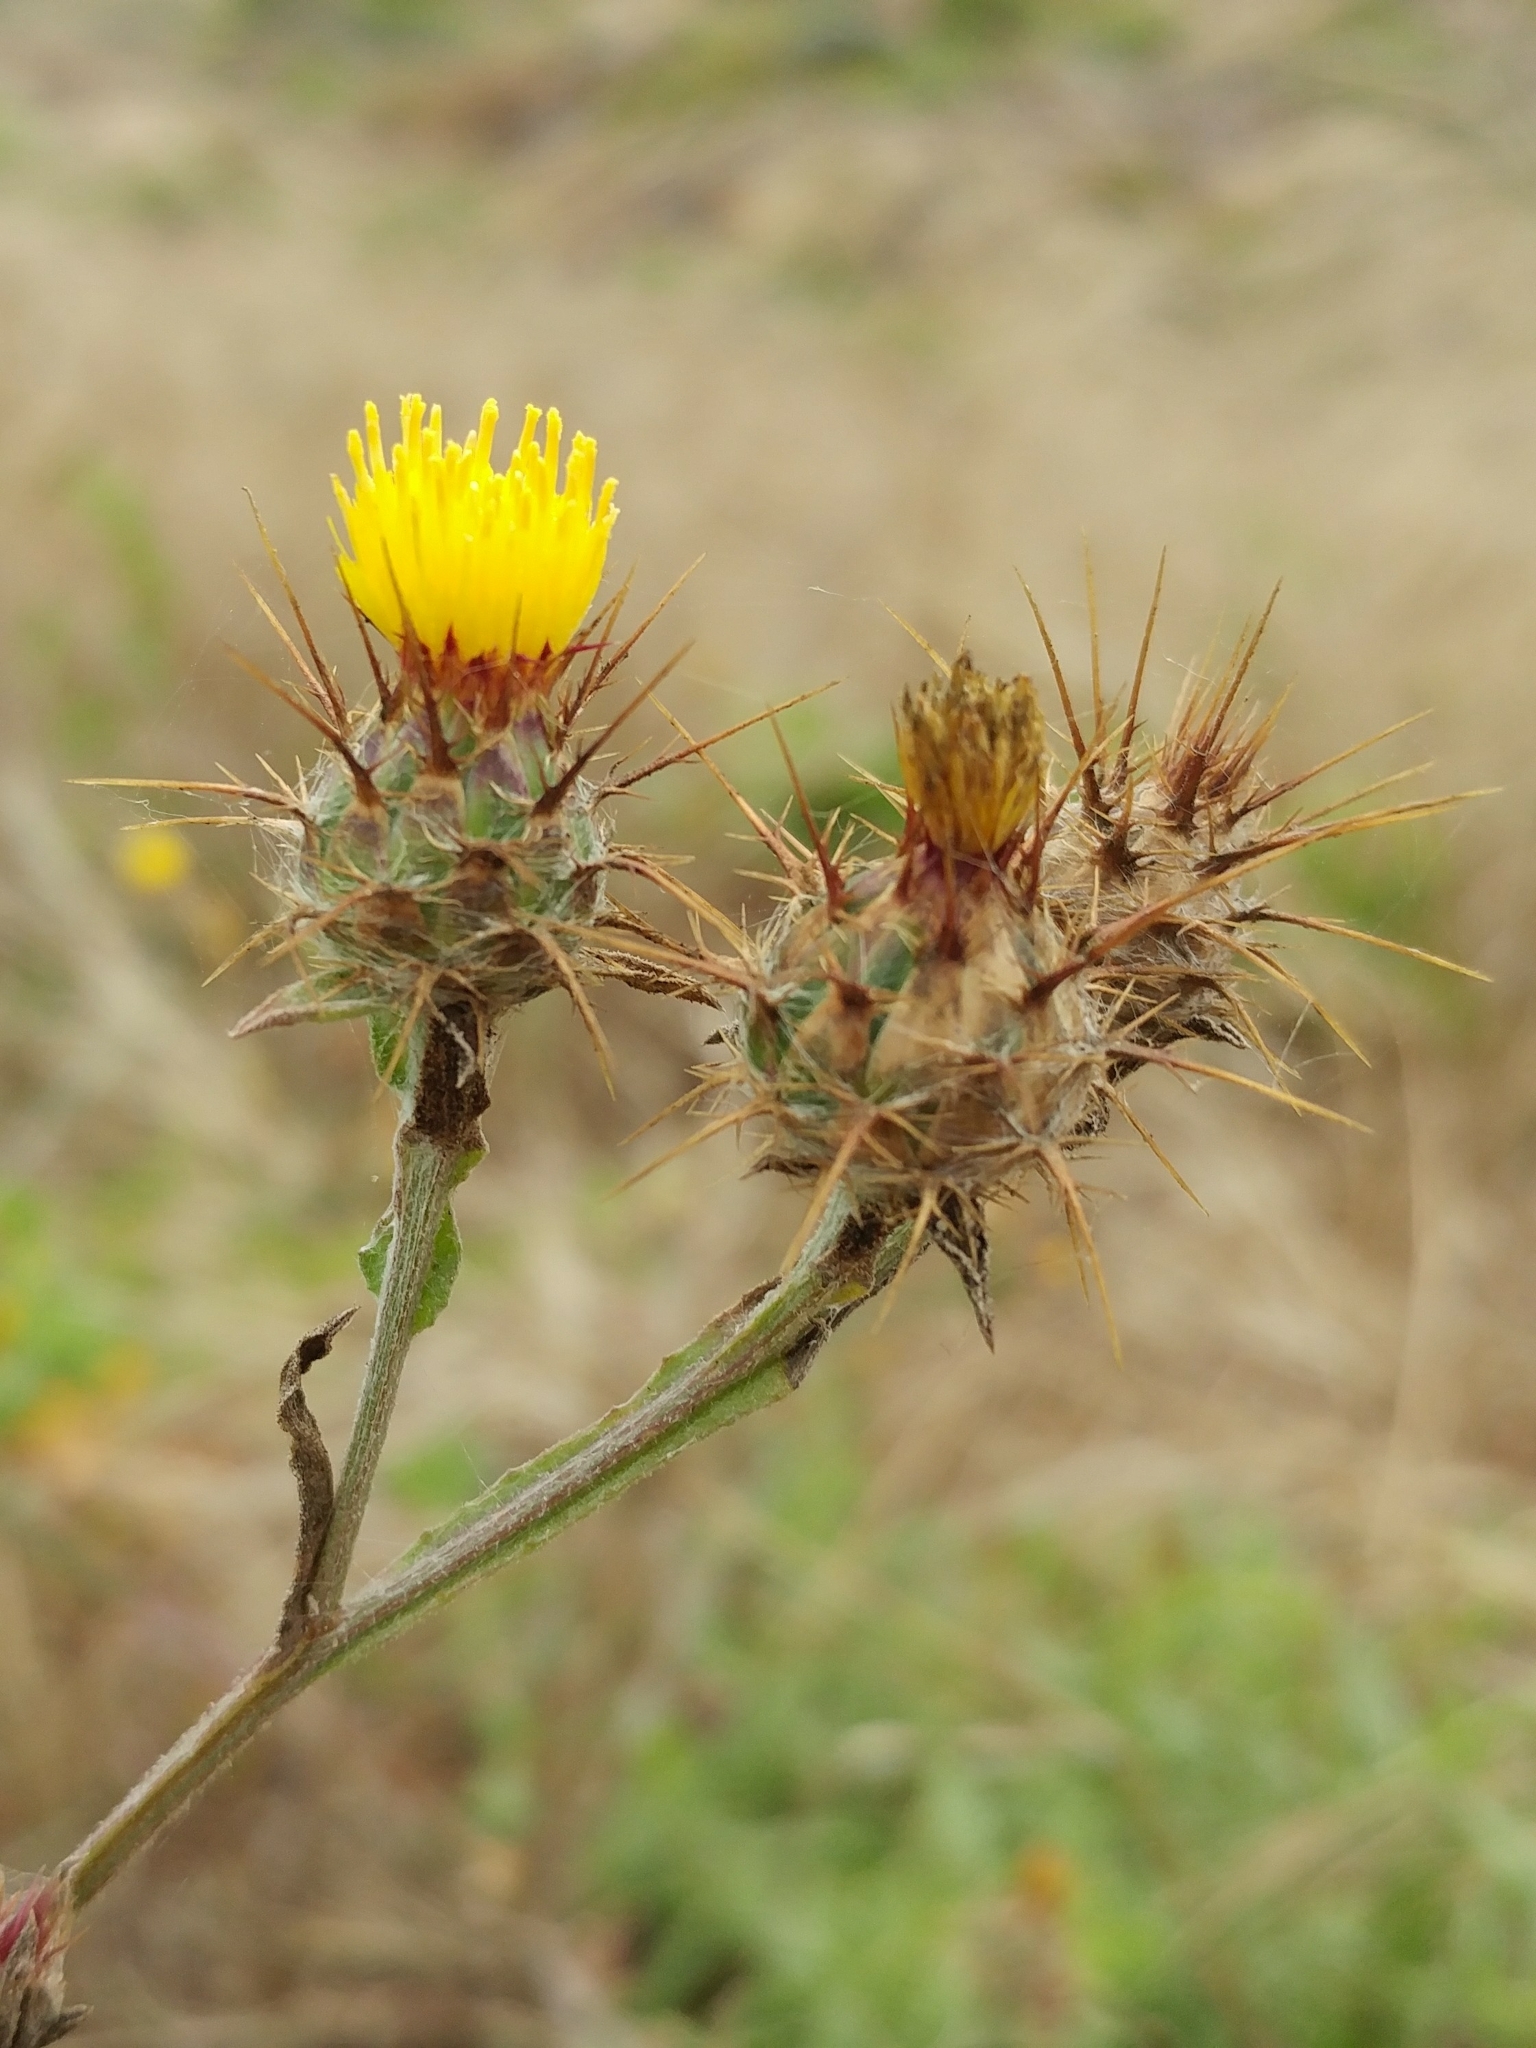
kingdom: Plantae
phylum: Tracheophyta
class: Magnoliopsida
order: Asterales
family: Asteraceae
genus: Centaurea
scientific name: Centaurea melitensis
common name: Maltese star-thistle
